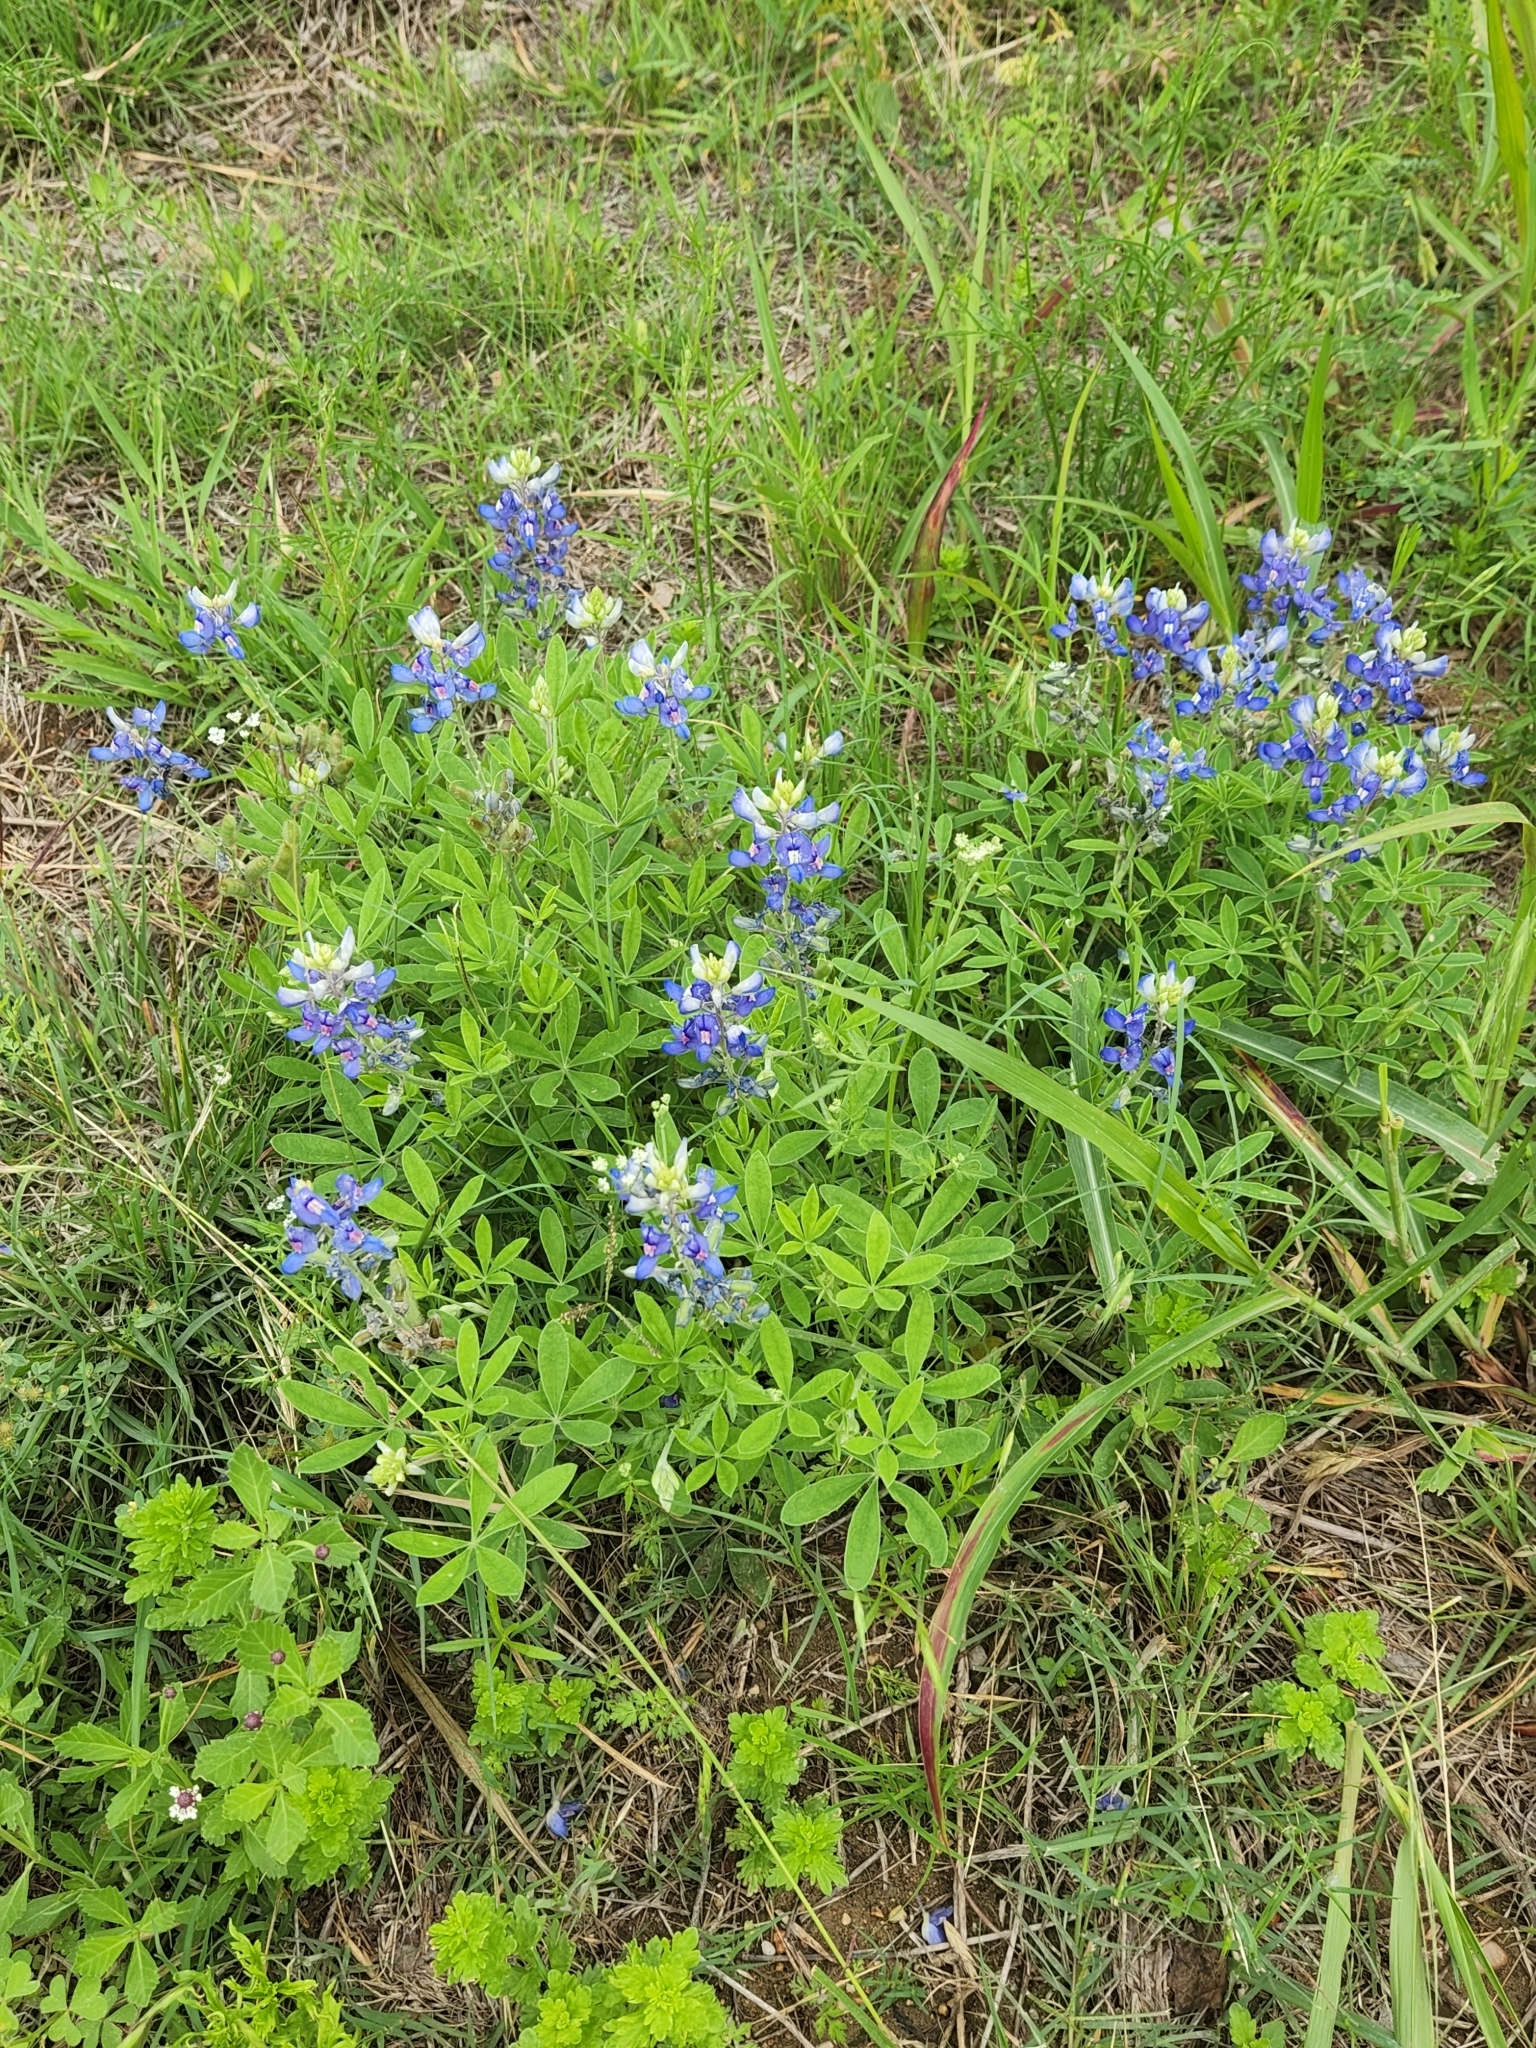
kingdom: Plantae
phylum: Tracheophyta
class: Magnoliopsida
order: Fabales
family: Fabaceae
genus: Lupinus
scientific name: Lupinus texensis
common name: Texas bluebonnet
